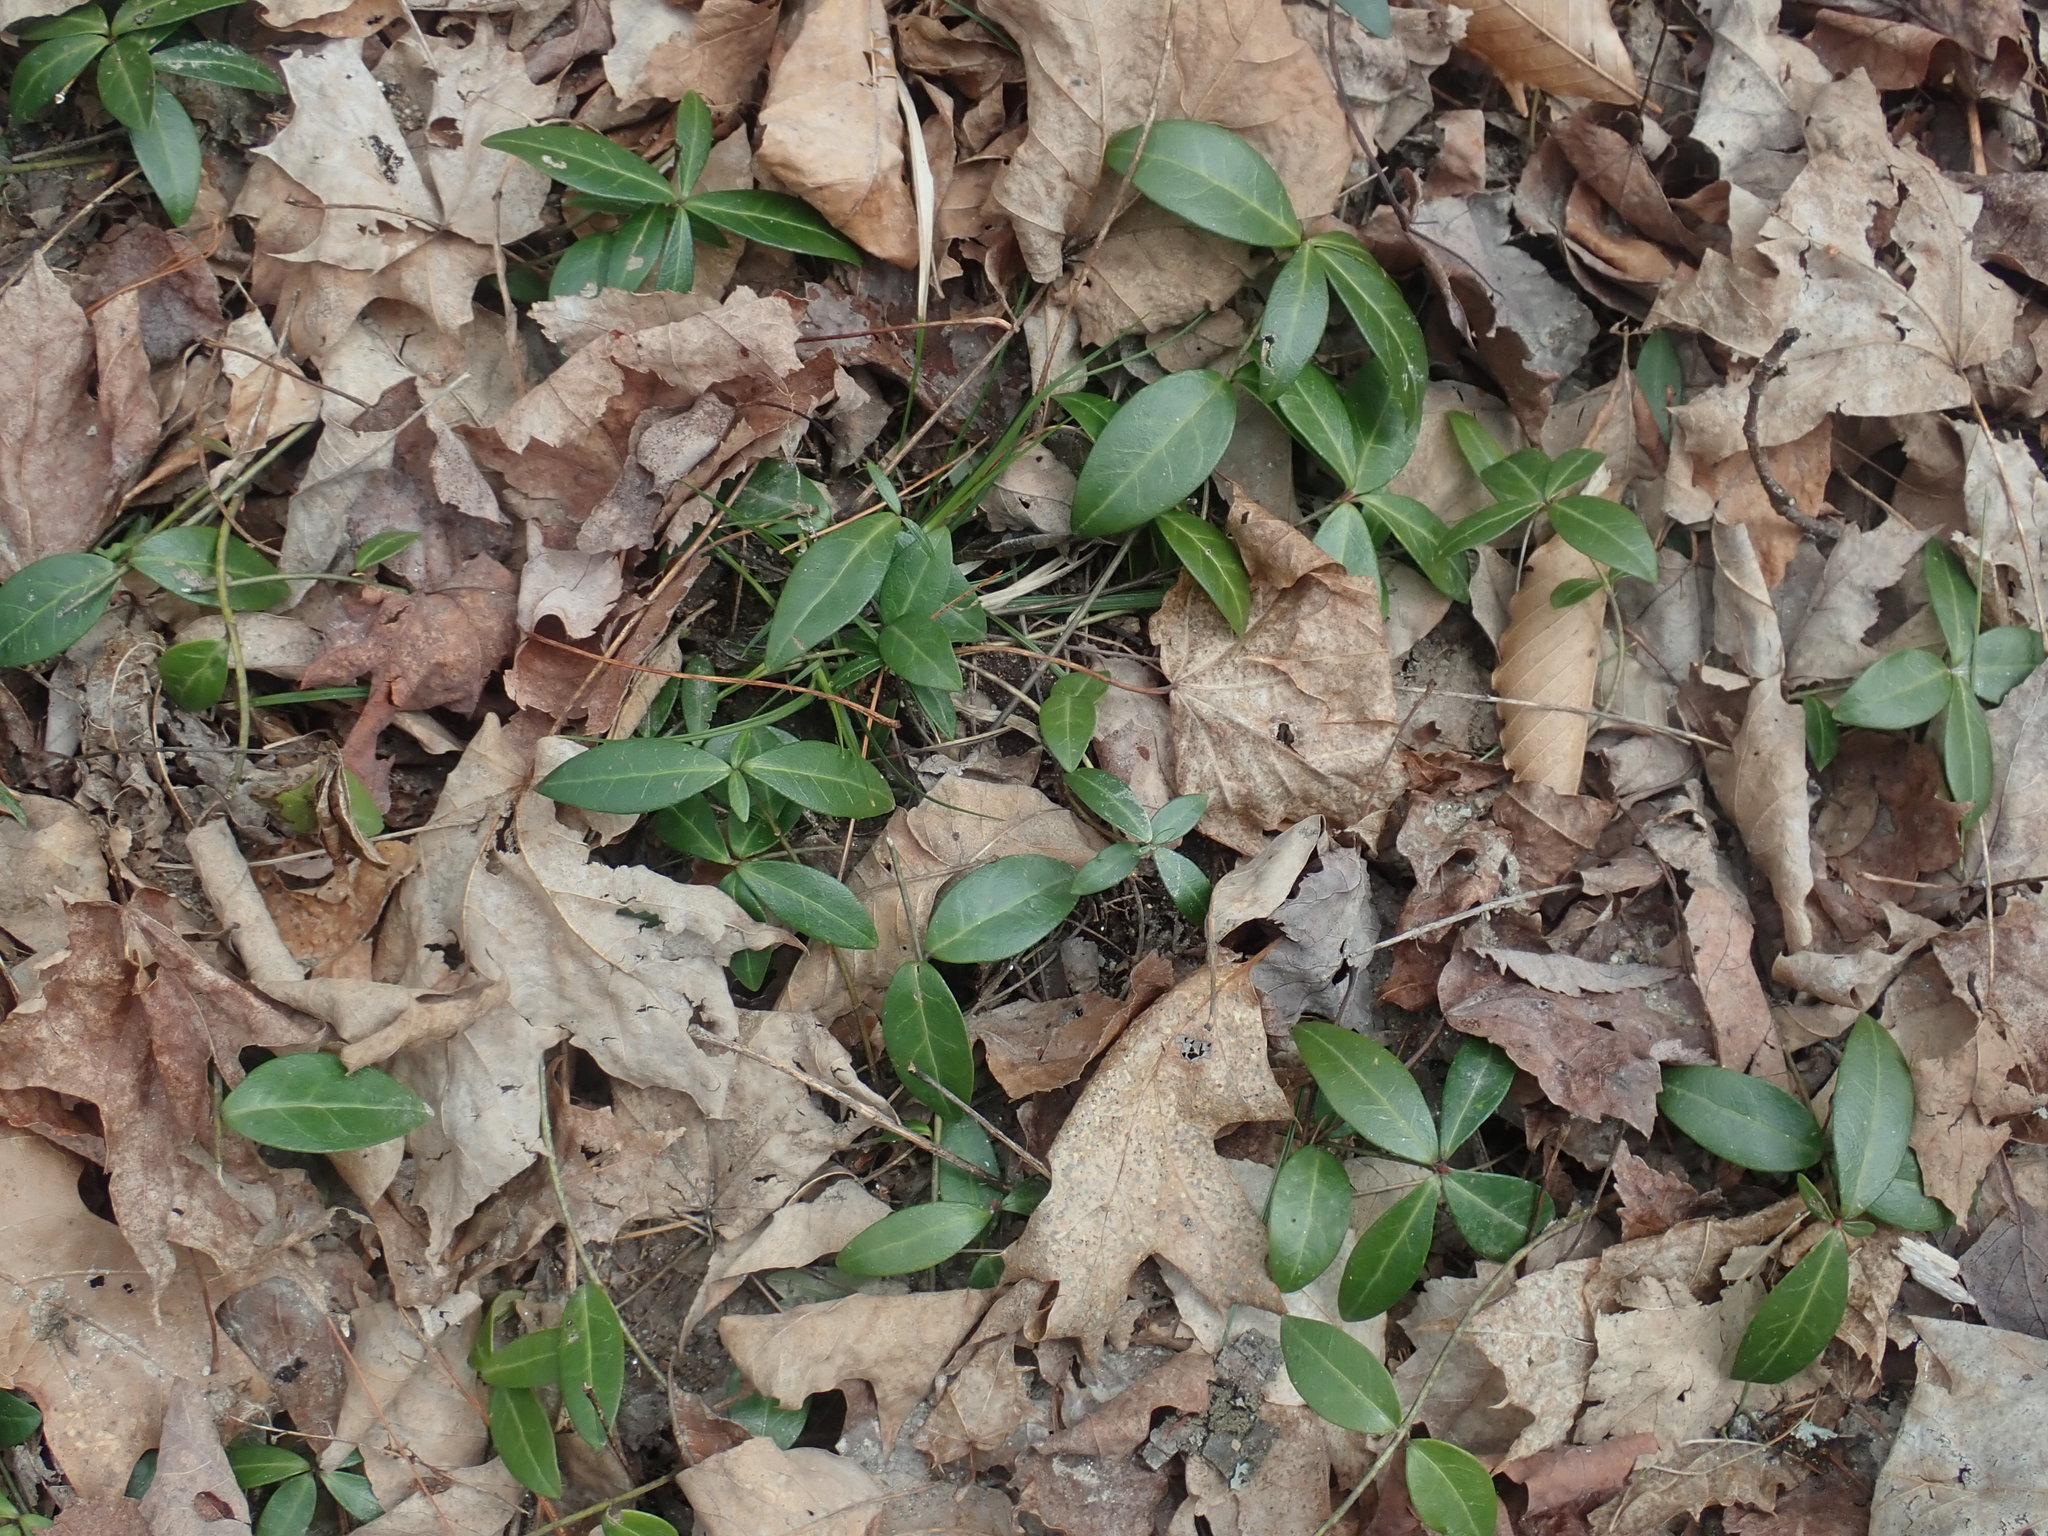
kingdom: Plantae
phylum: Tracheophyta
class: Magnoliopsida
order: Gentianales
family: Apocynaceae
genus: Vinca
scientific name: Vinca minor
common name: Lesser periwinkle
